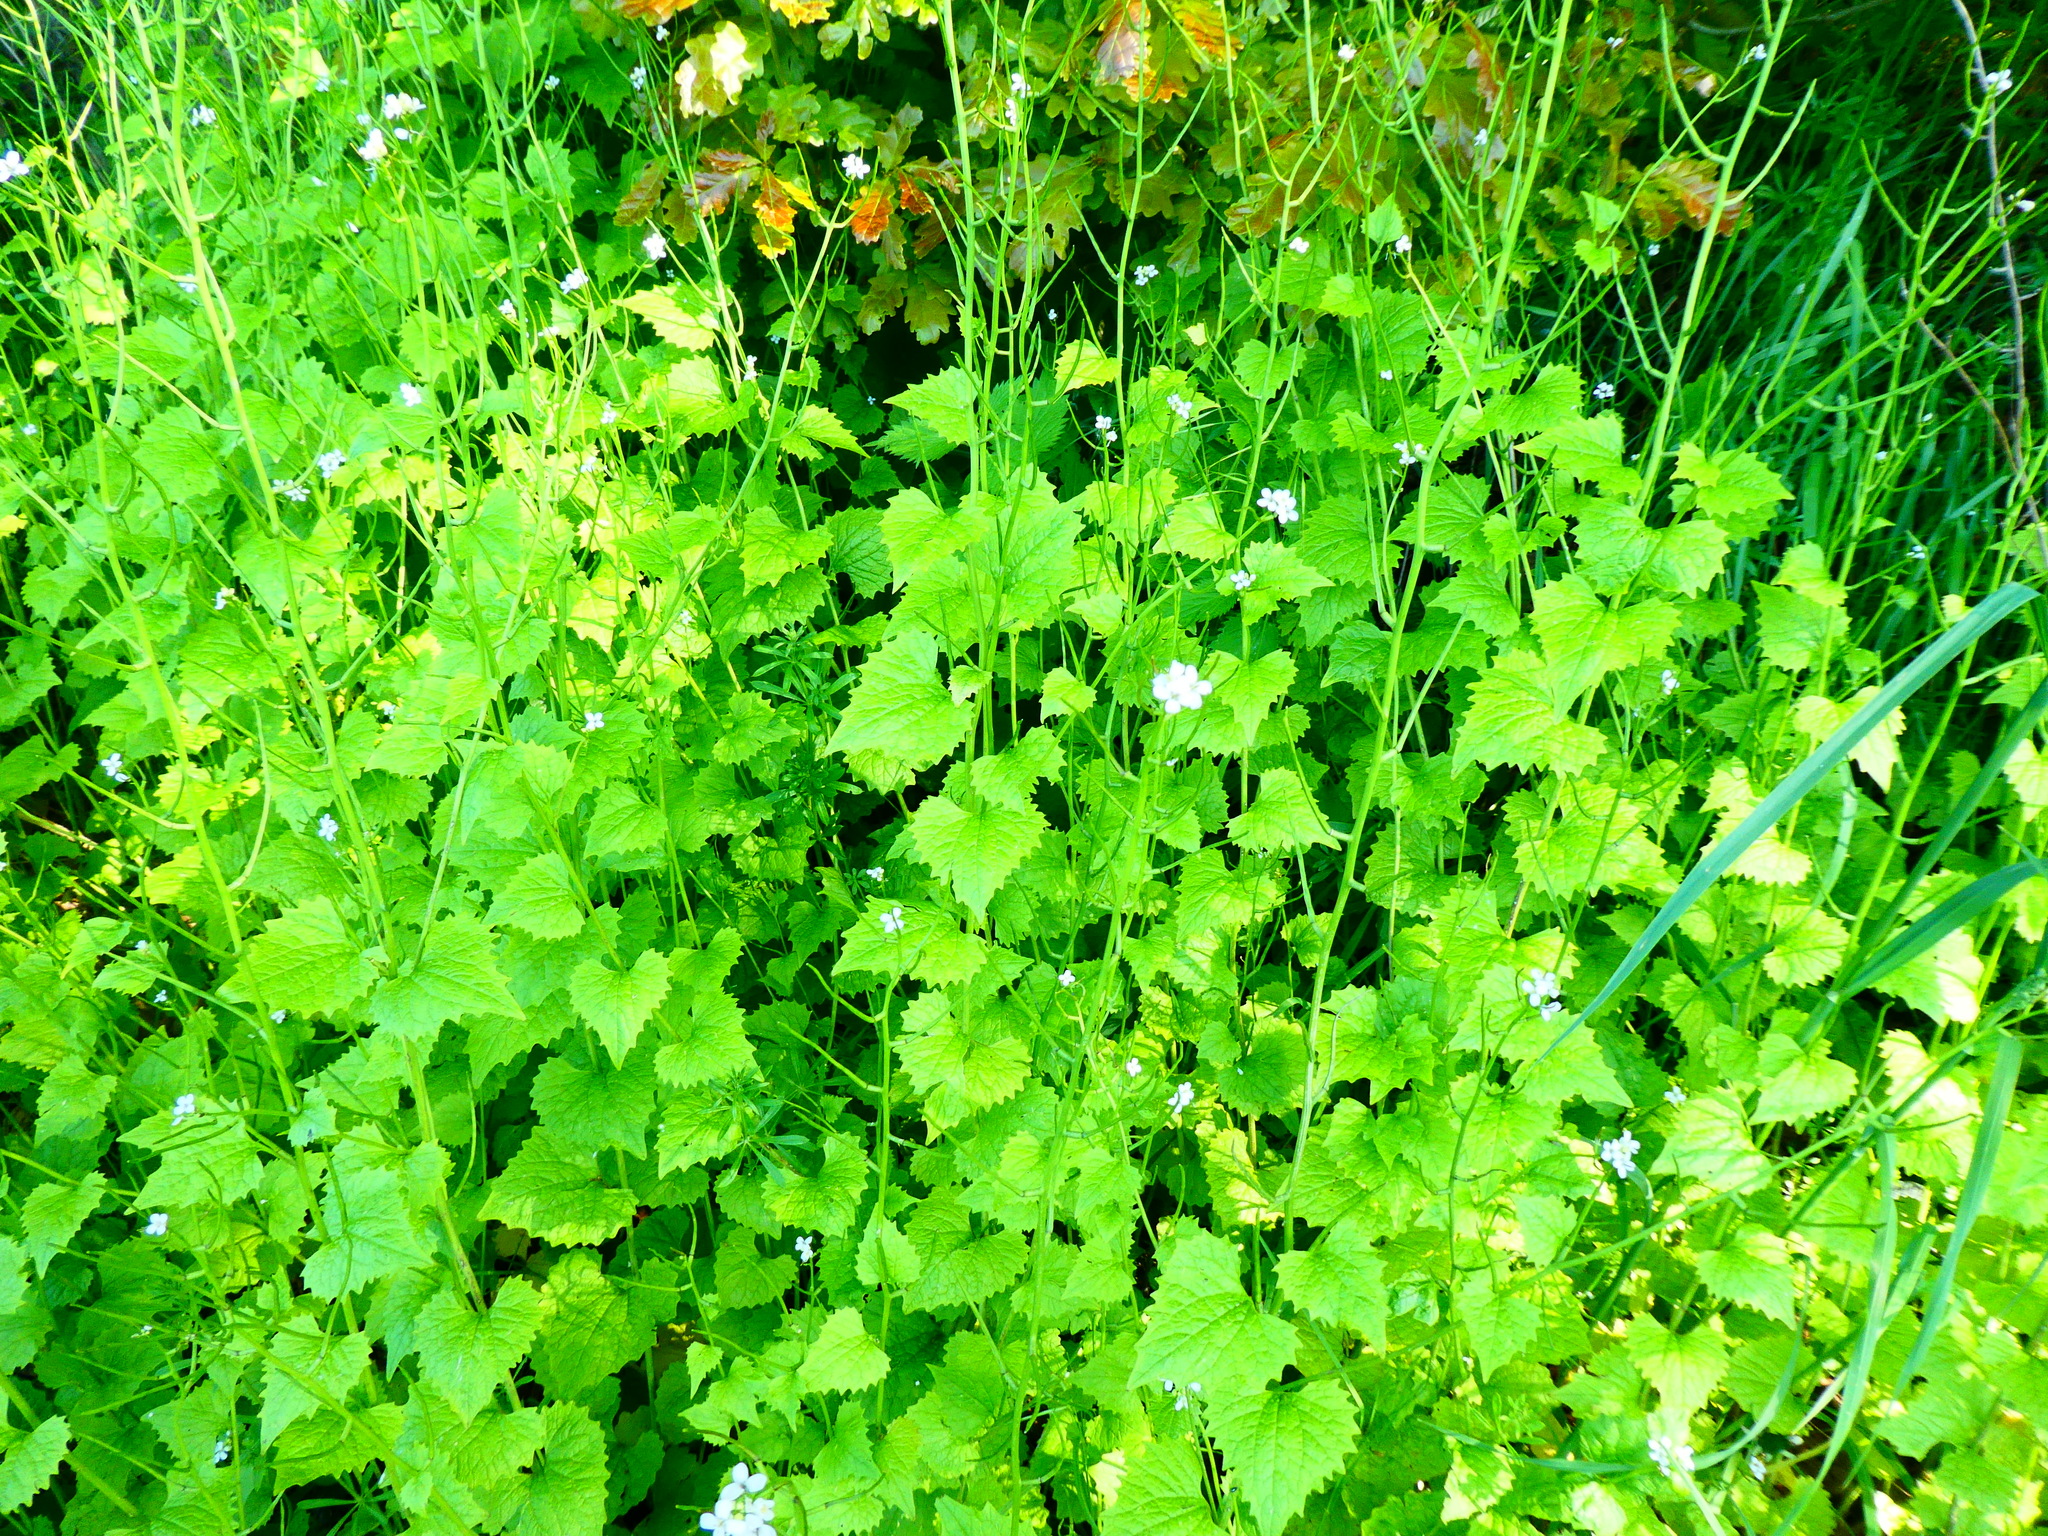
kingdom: Plantae
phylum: Tracheophyta
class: Magnoliopsida
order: Brassicales
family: Brassicaceae
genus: Alliaria
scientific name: Alliaria petiolata
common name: Garlic mustard
